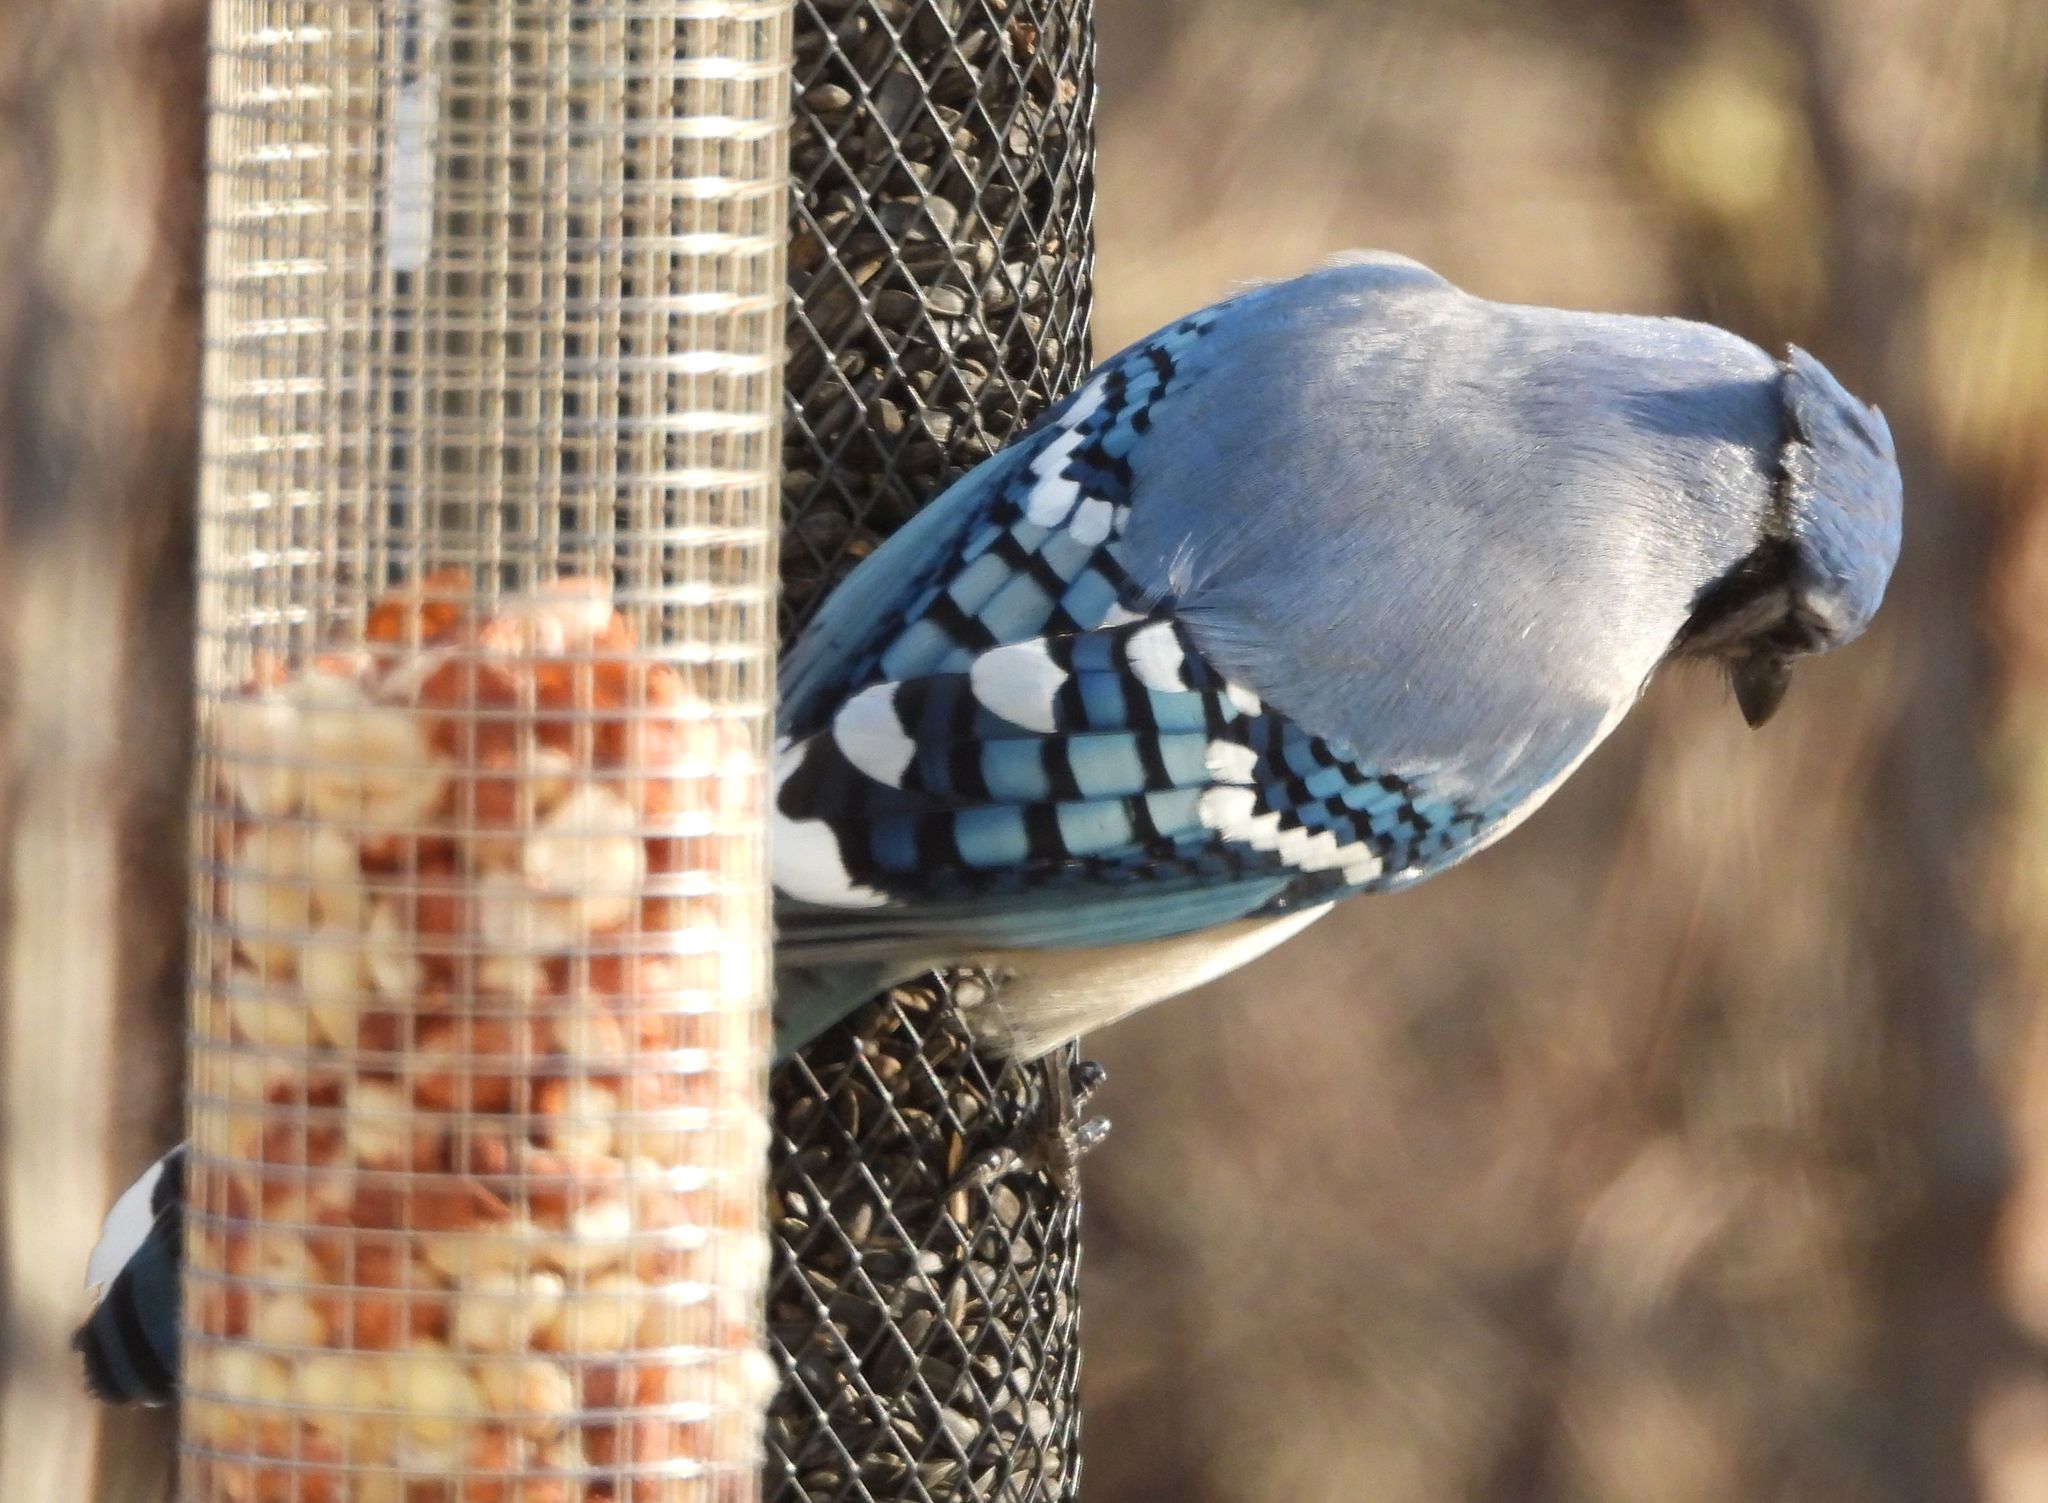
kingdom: Animalia
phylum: Chordata
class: Aves
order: Passeriformes
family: Corvidae
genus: Cyanocitta
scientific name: Cyanocitta cristata
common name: Blue jay
